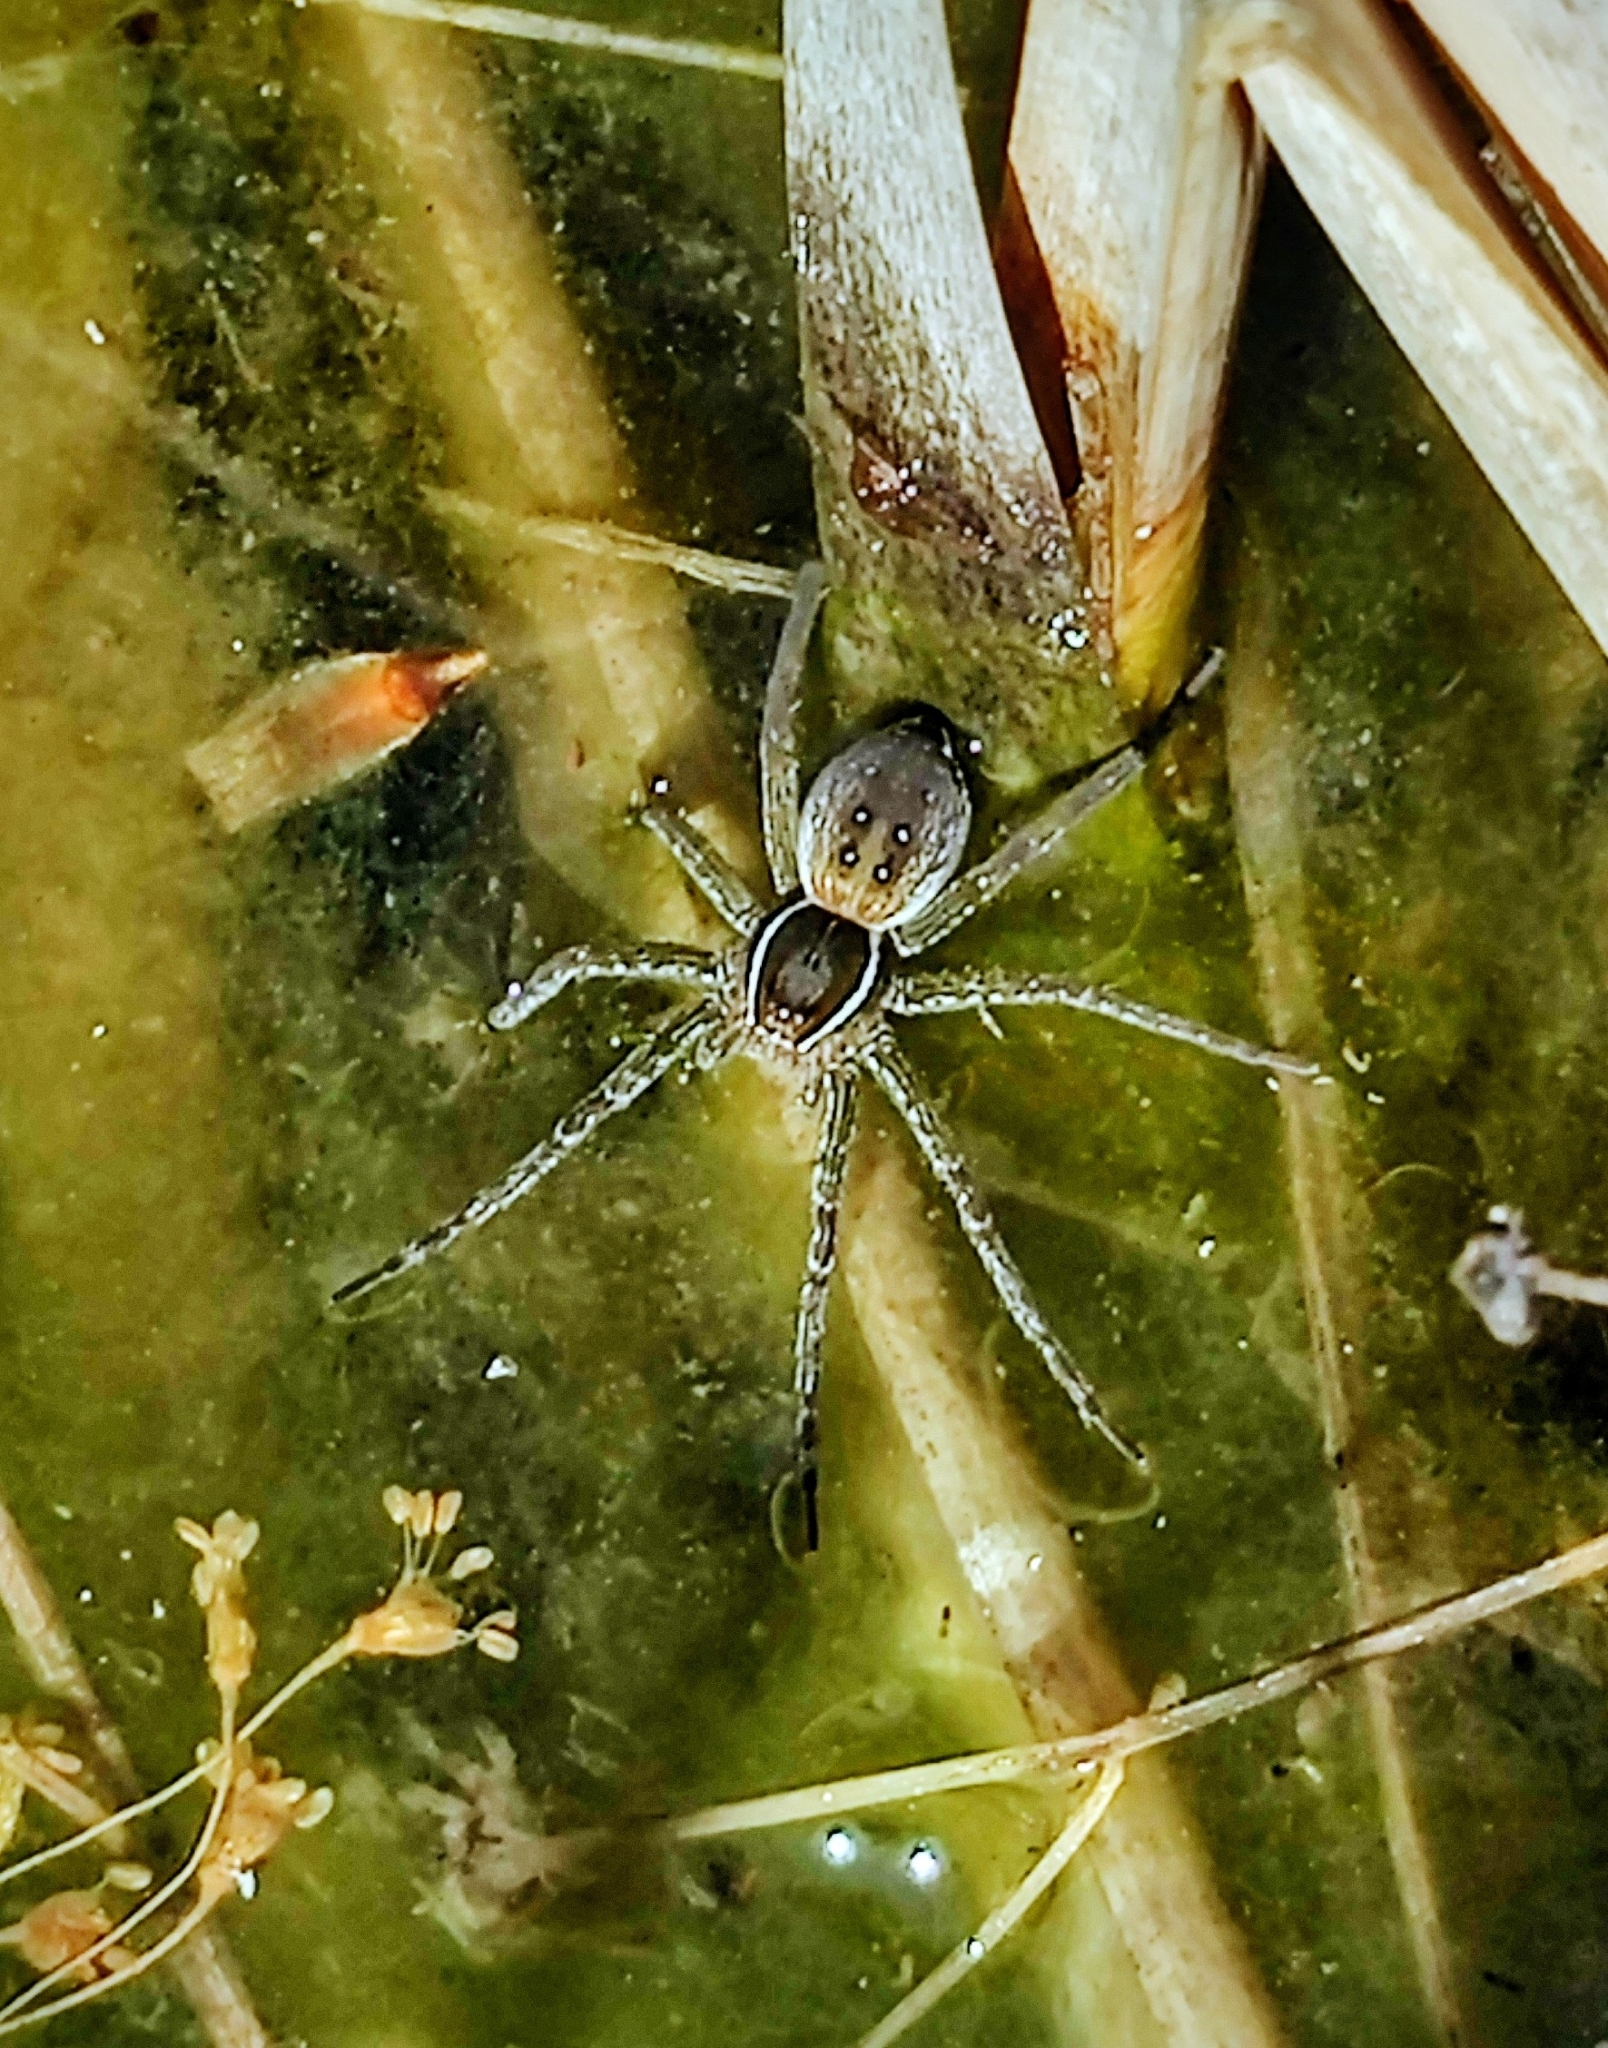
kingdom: Animalia
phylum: Arthropoda
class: Arachnida
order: Araneae
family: Pisauridae
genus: Dolomedes
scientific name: Dolomedes triton
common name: Six-spotted fishing spider
